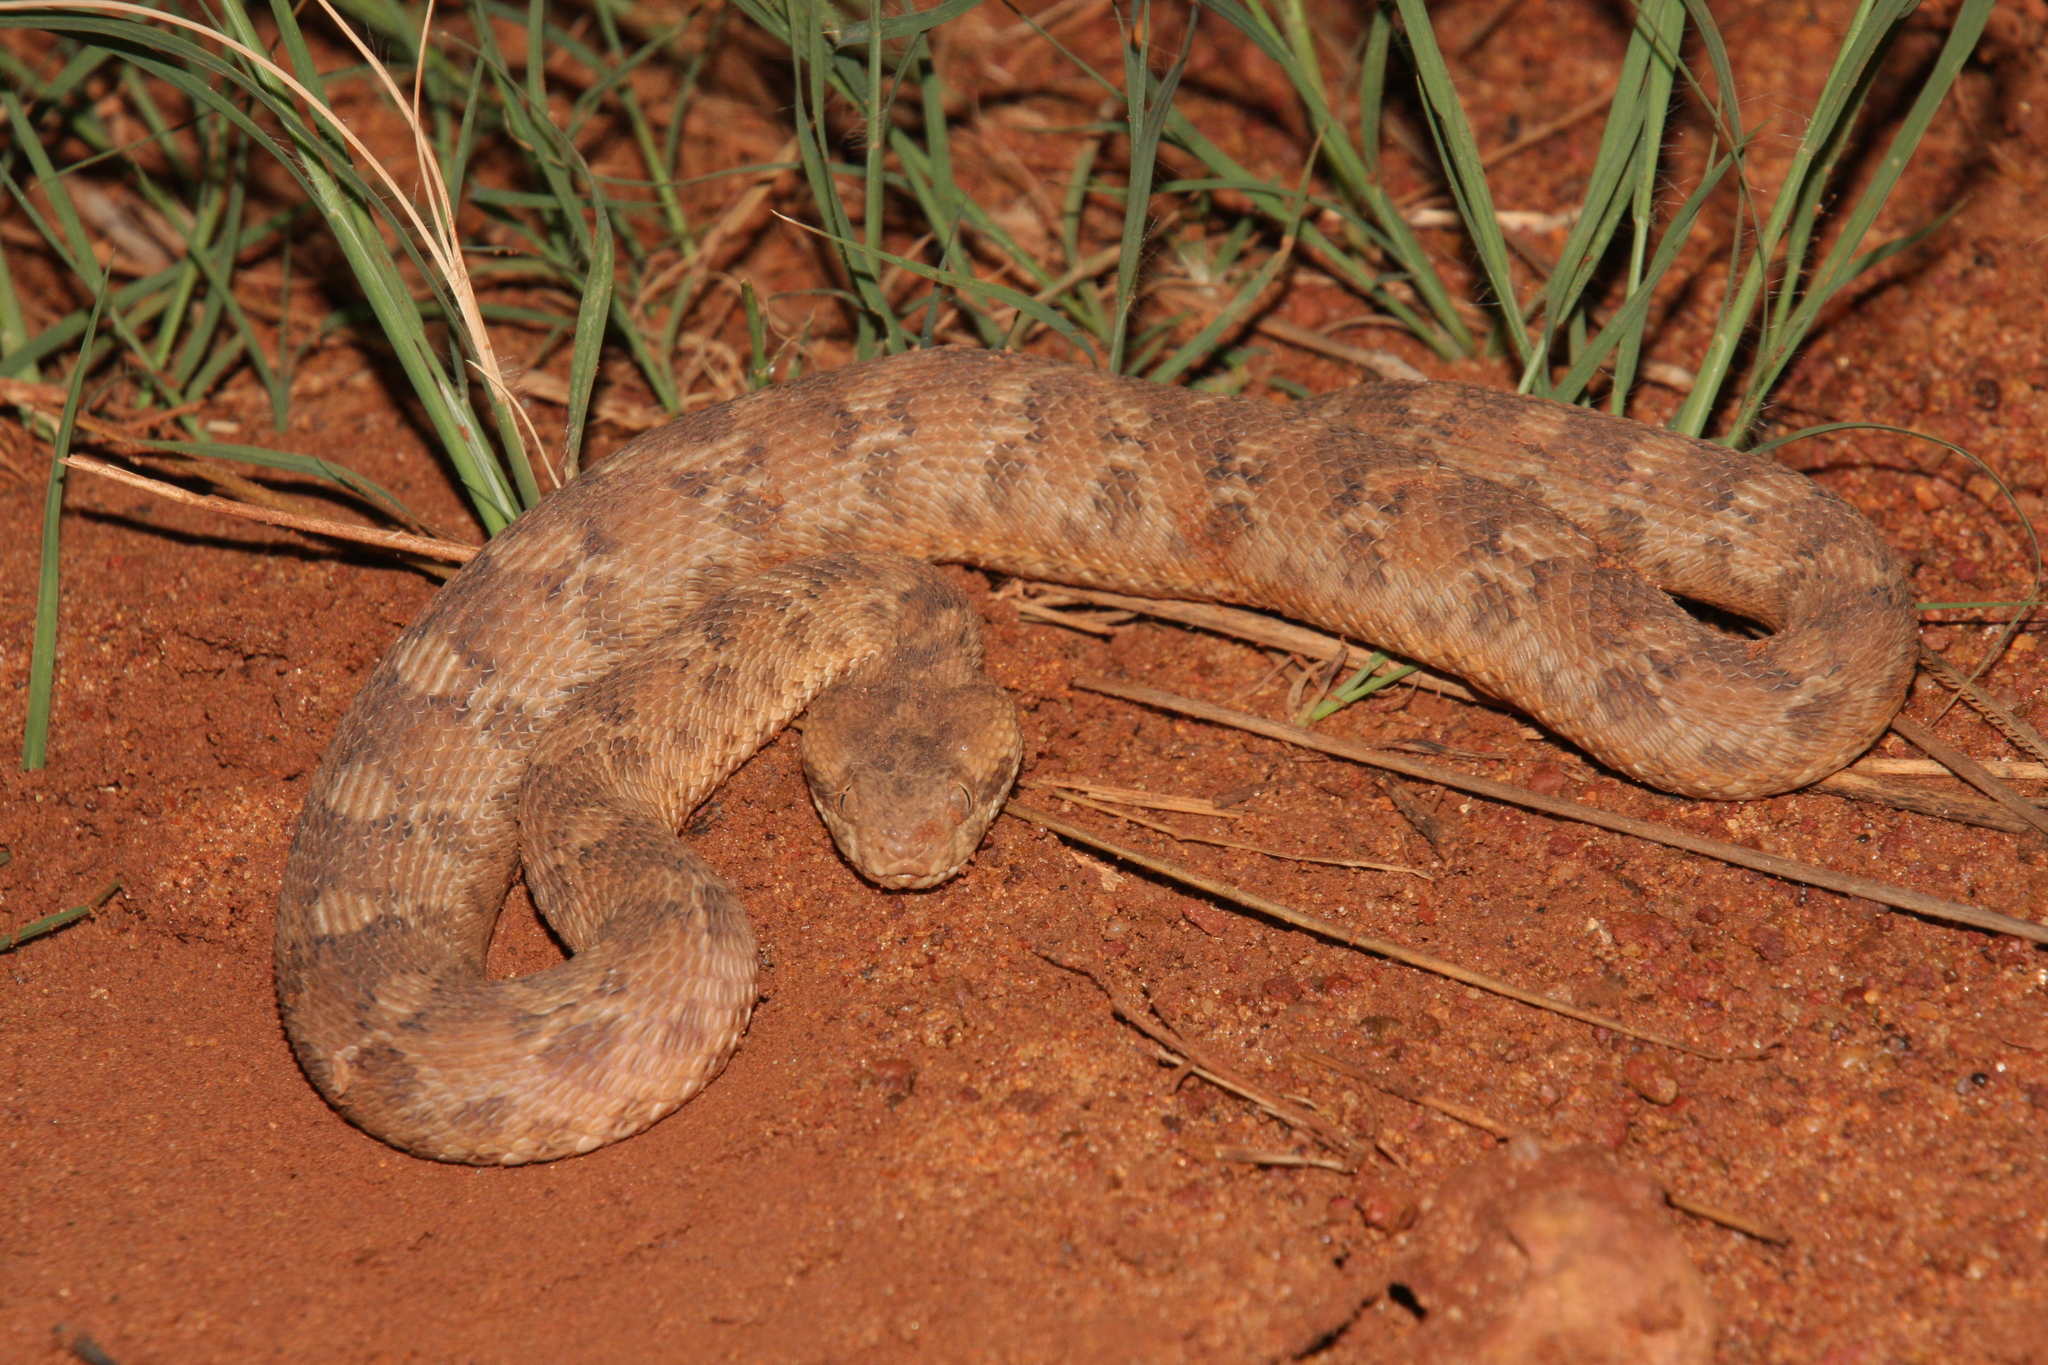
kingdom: Animalia
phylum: Chordata
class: Squamata
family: Viperidae
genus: Echis
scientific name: Echis leucogaster
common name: White-bellied carpet viper
